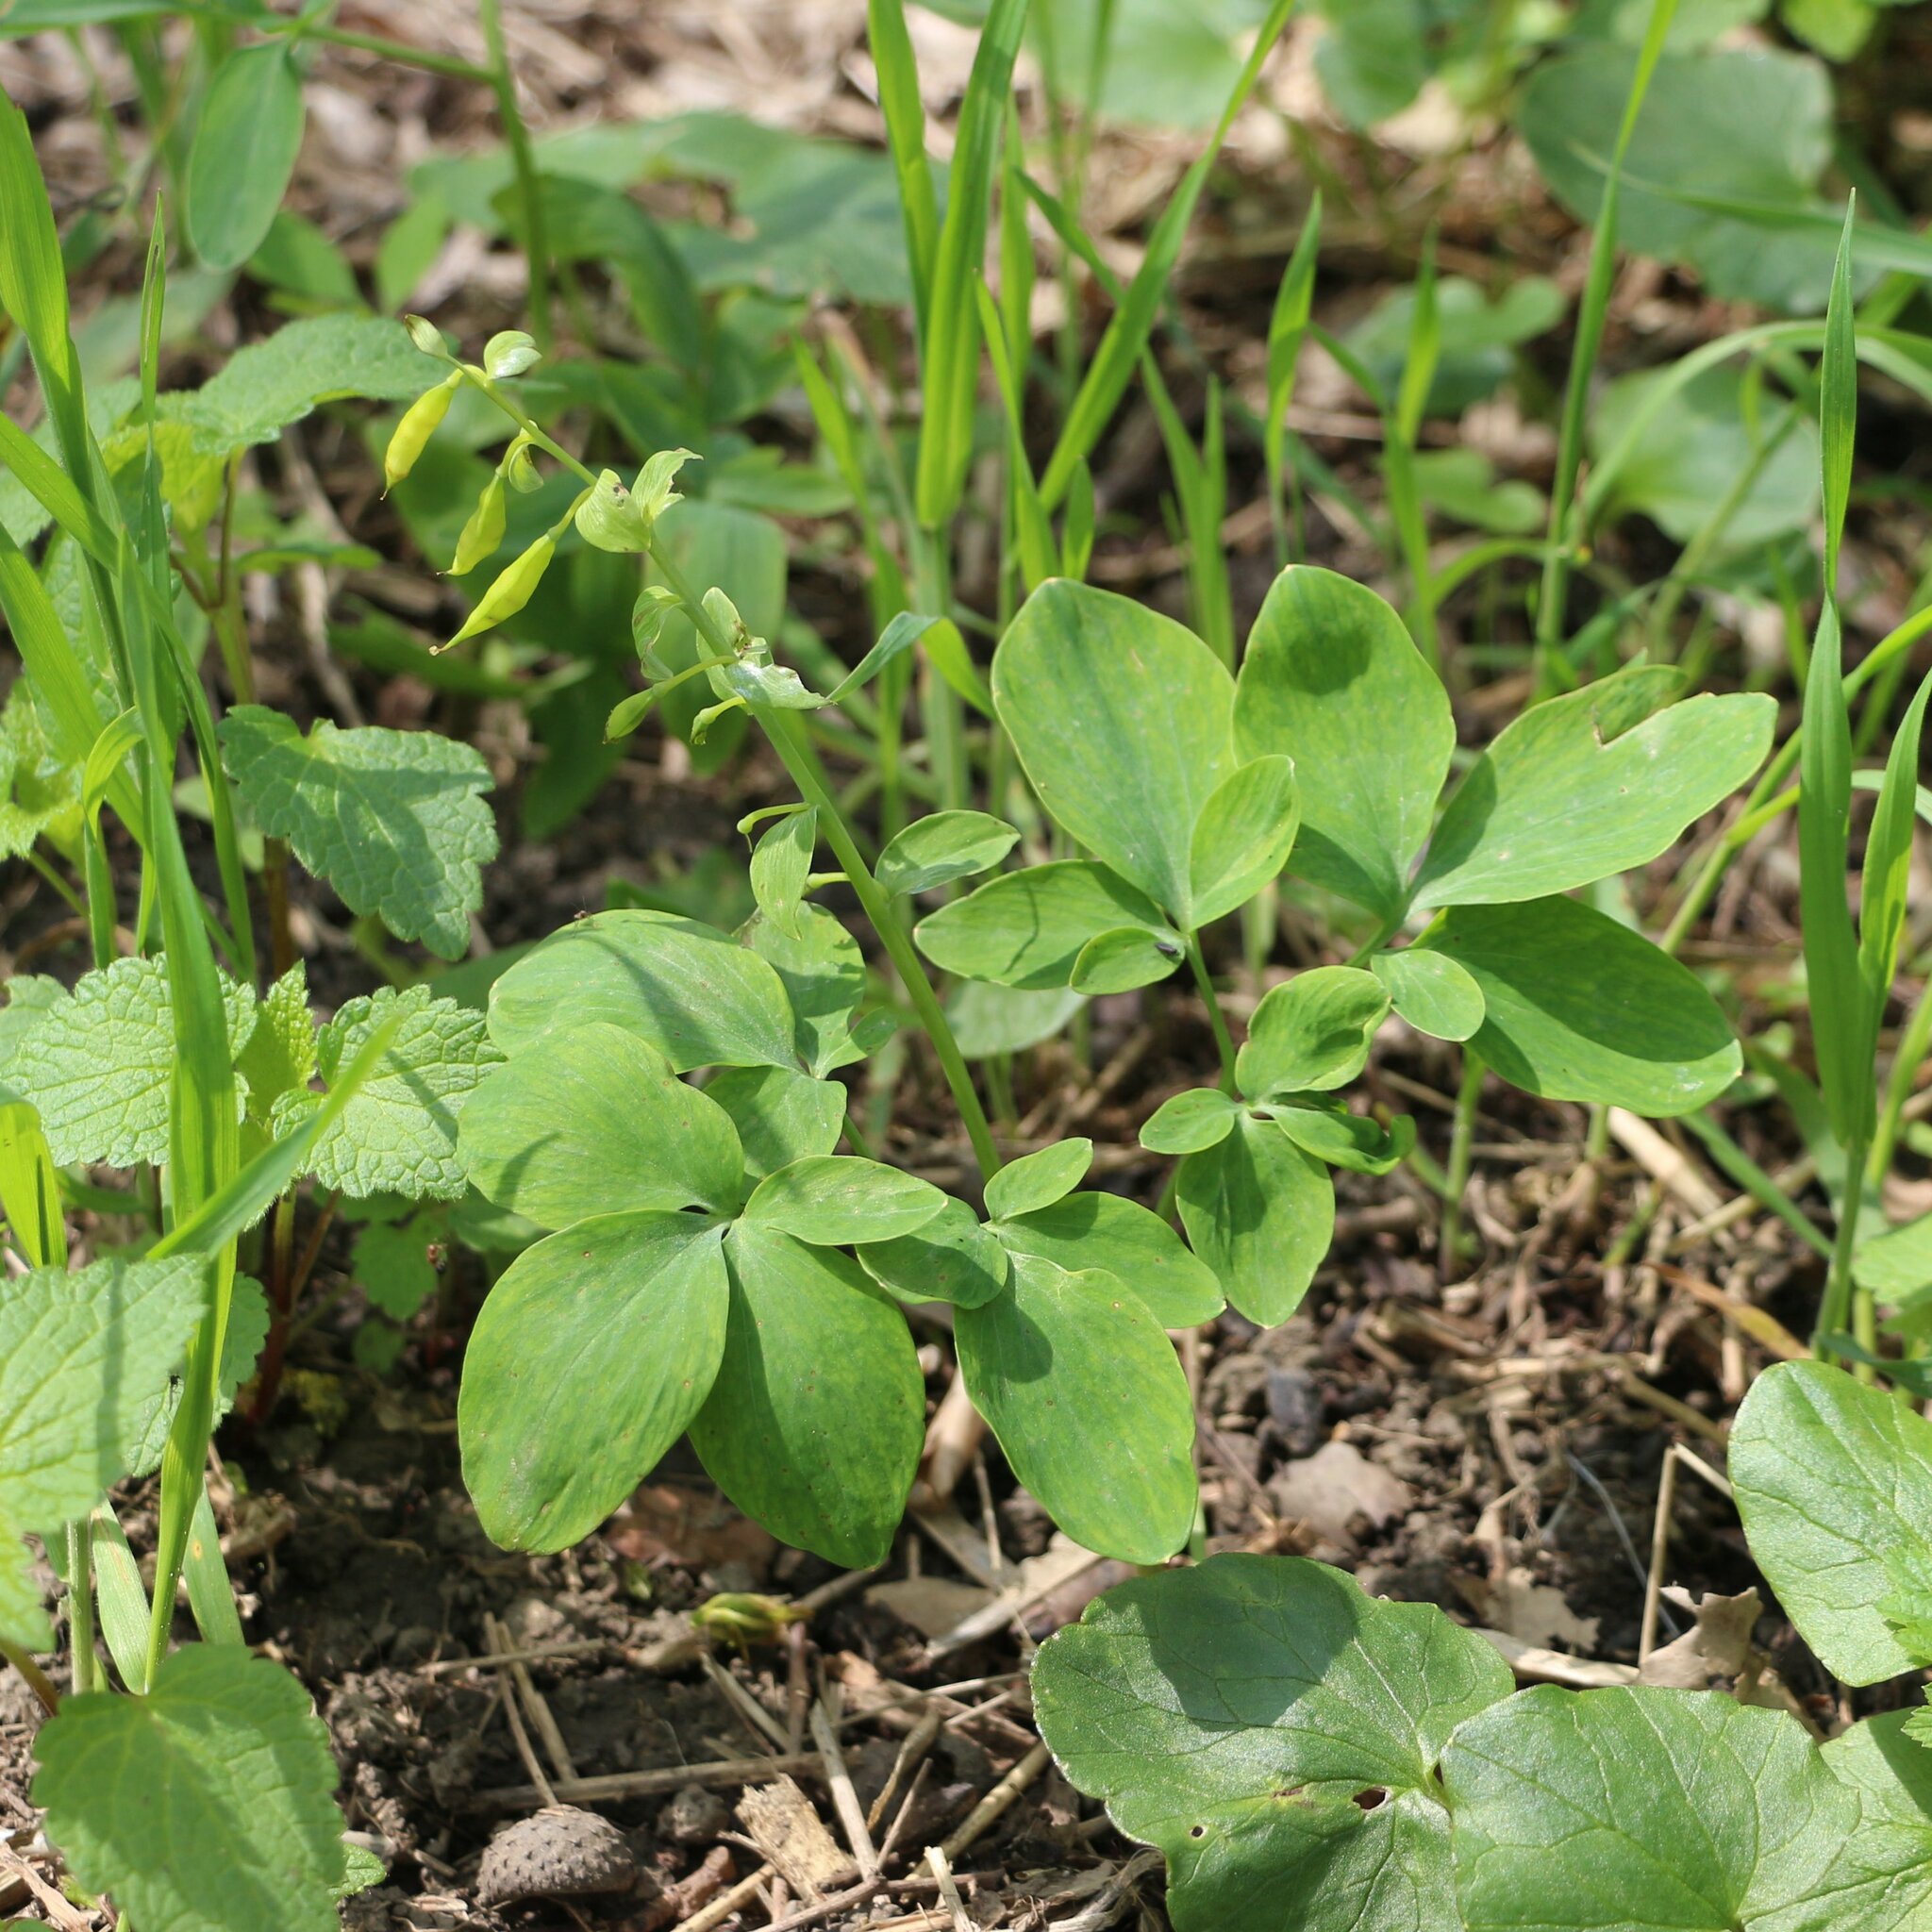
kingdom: Plantae
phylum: Tracheophyta
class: Magnoliopsida
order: Ranunculales
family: Papaveraceae
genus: Corydalis
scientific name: Corydalis cava
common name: Hollowroot
